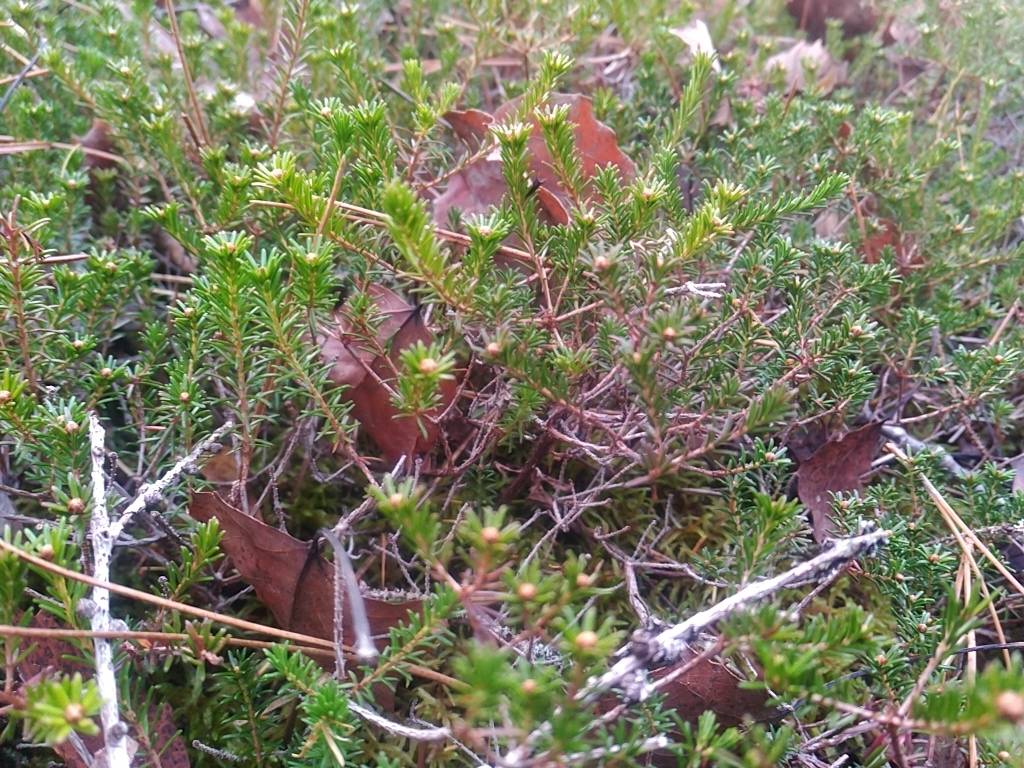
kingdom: Plantae
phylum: Tracheophyta
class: Magnoliopsida
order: Ericales
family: Ericaceae
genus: Corema
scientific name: Corema conradii
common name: Broom-crowberry
